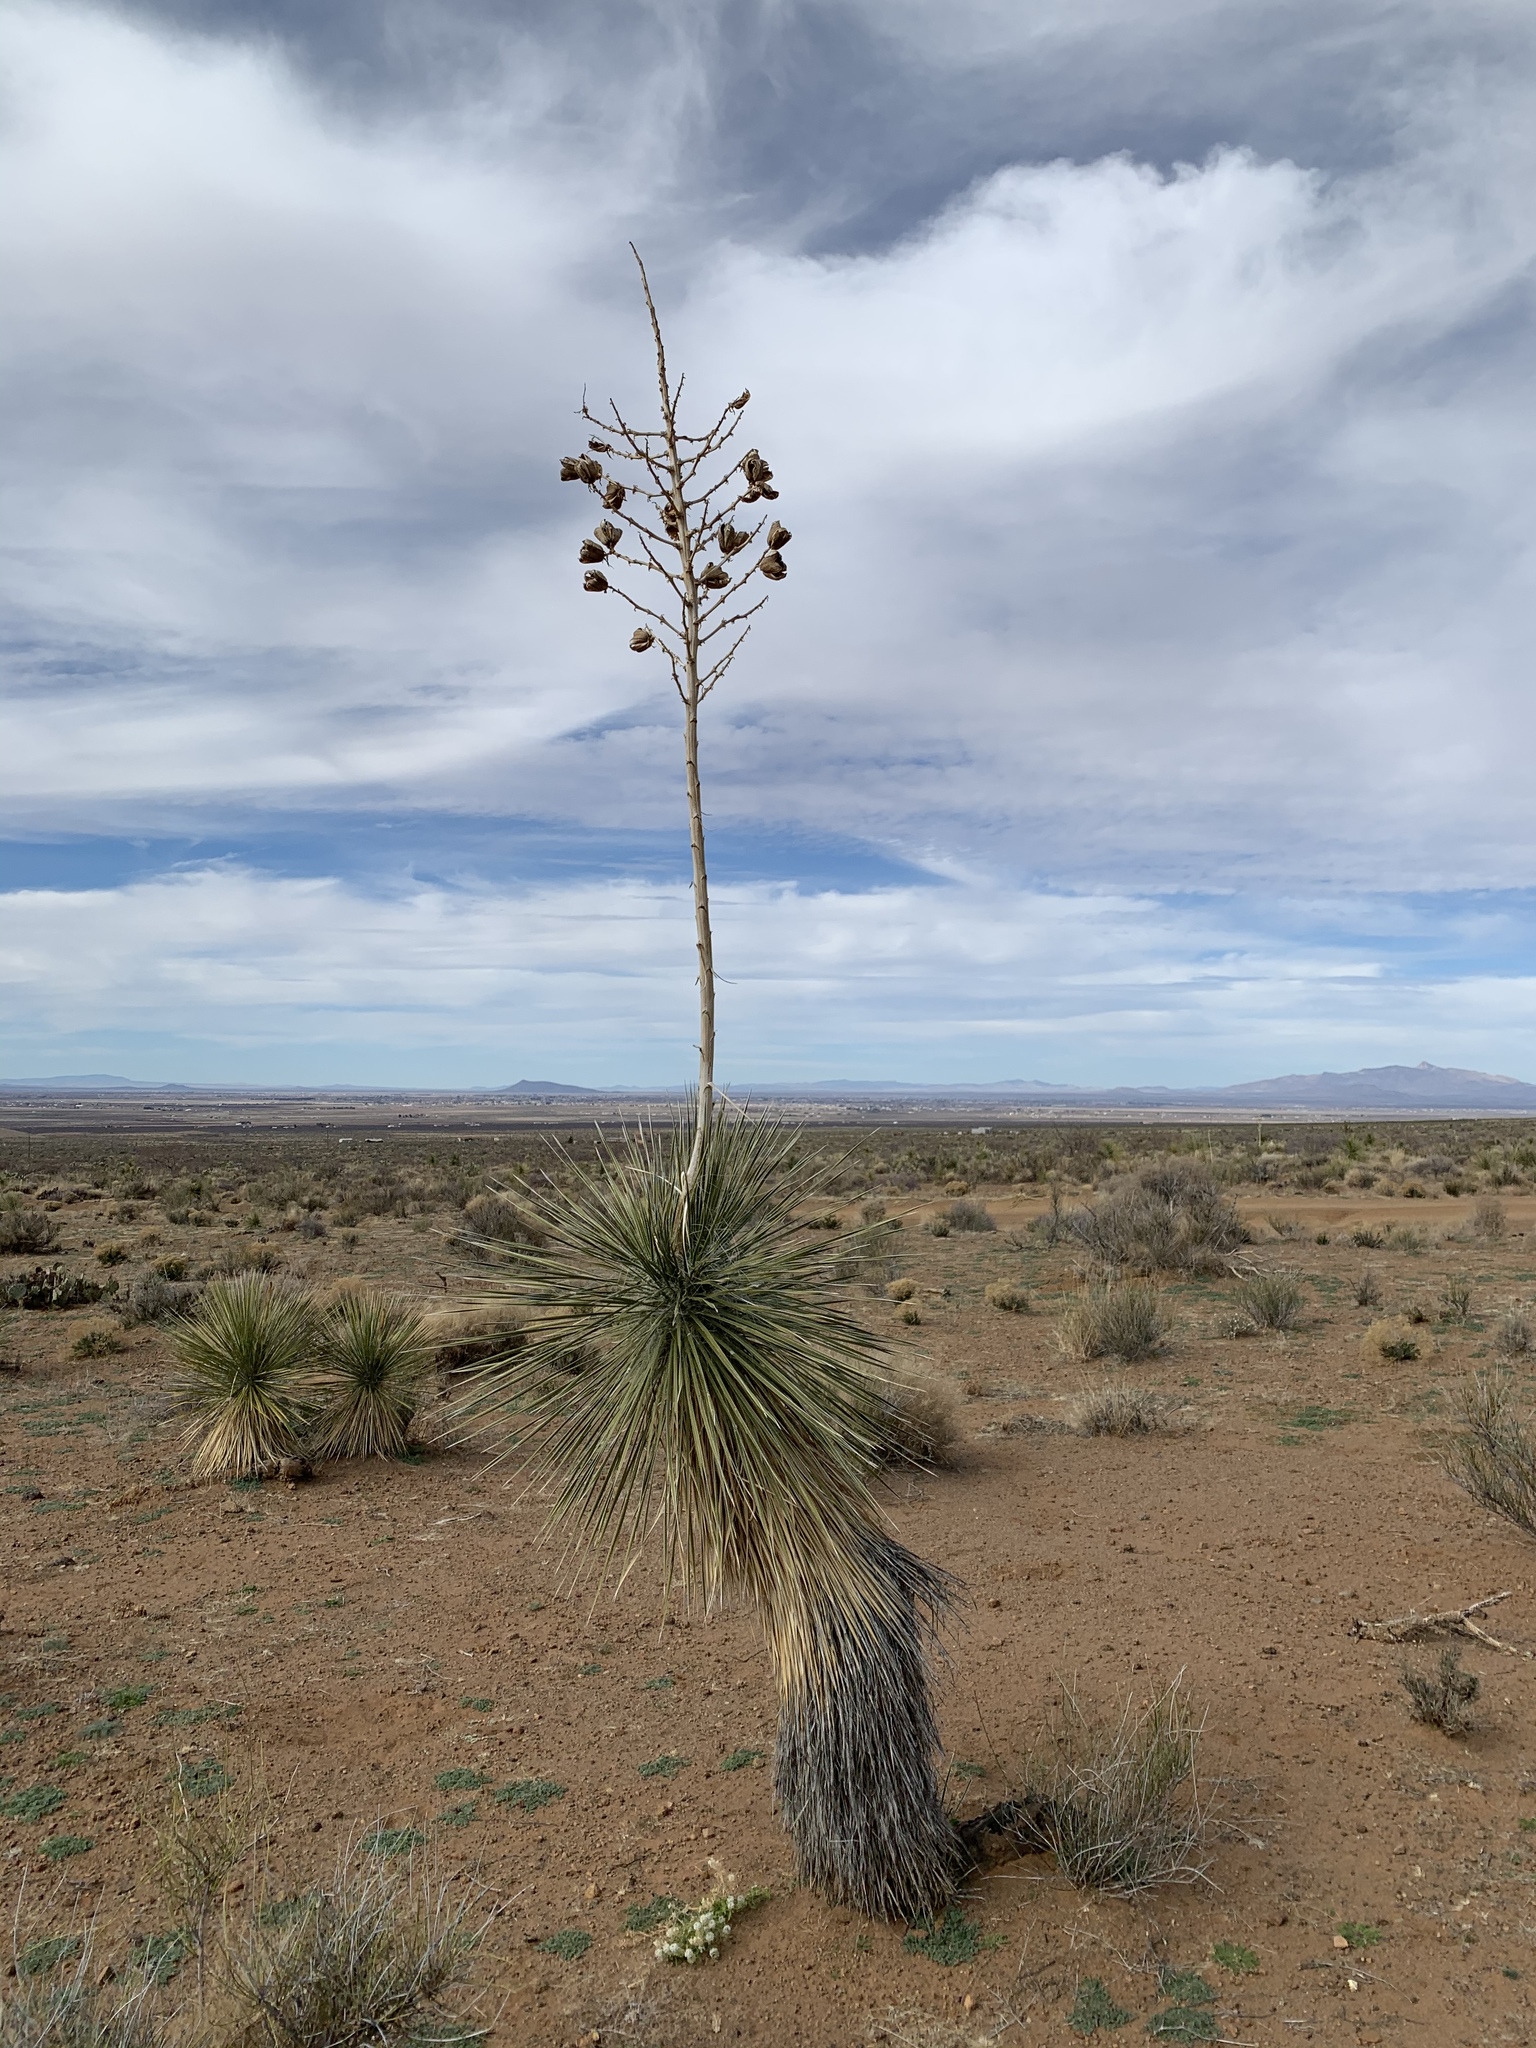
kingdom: Plantae
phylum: Tracheophyta
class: Liliopsida
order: Asparagales
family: Asparagaceae
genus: Yucca
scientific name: Yucca elata
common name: Palmella
